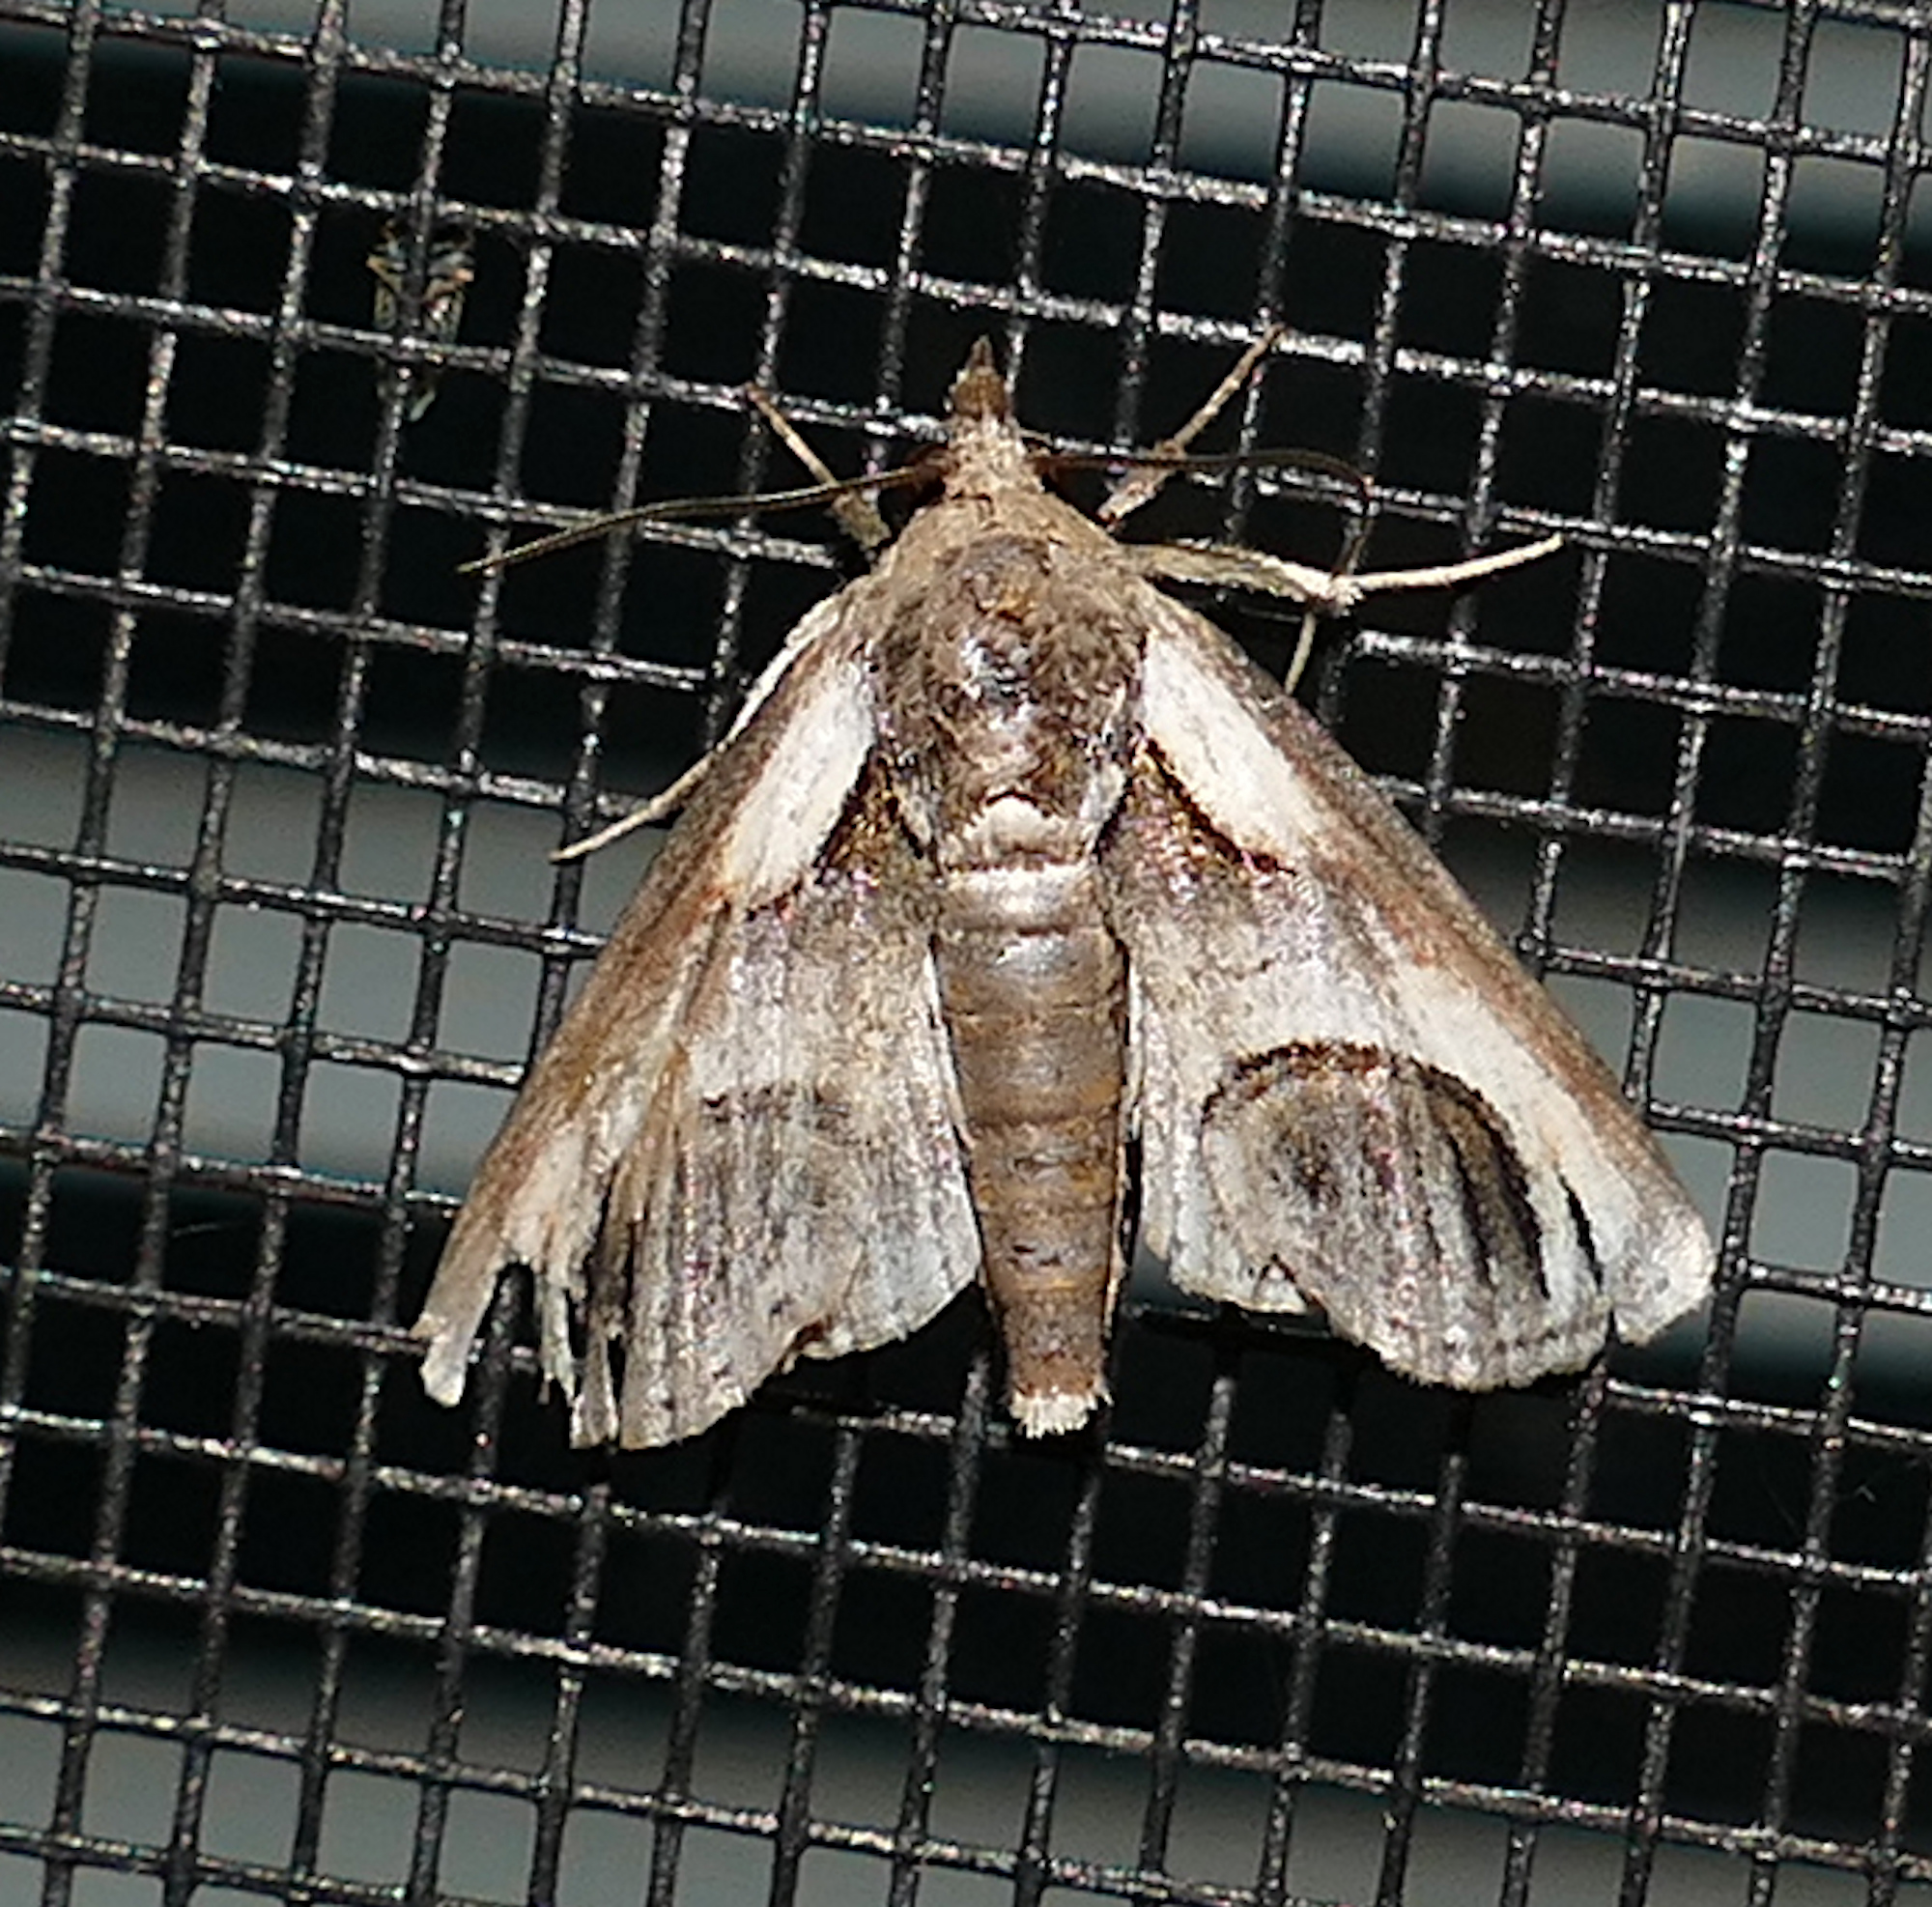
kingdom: Animalia
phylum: Arthropoda
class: Insecta
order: Lepidoptera
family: Euteliidae
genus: Paectes
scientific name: Paectes oculatrix
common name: Eyed paectes moth
